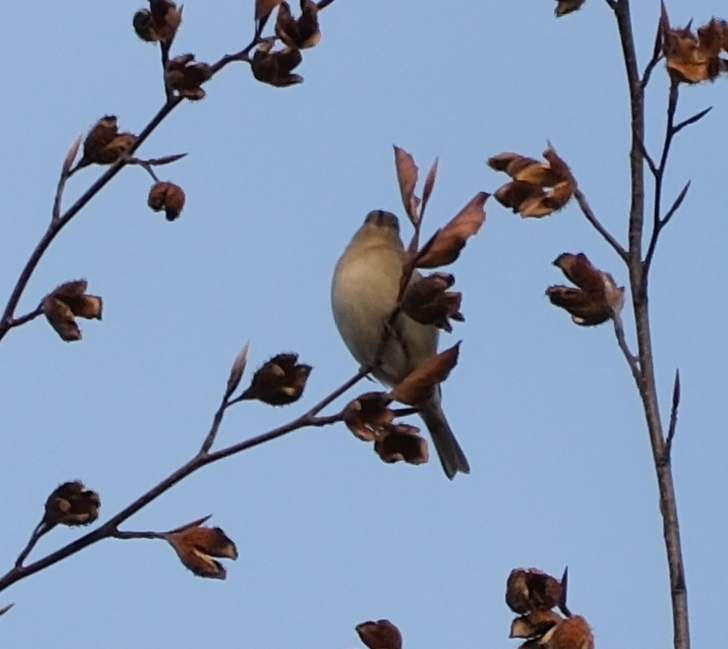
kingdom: Animalia
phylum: Chordata
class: Aves
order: Passeriformes
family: Fringillidae
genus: Fringilla
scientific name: Fringilla coelebs
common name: Common chaffinch
